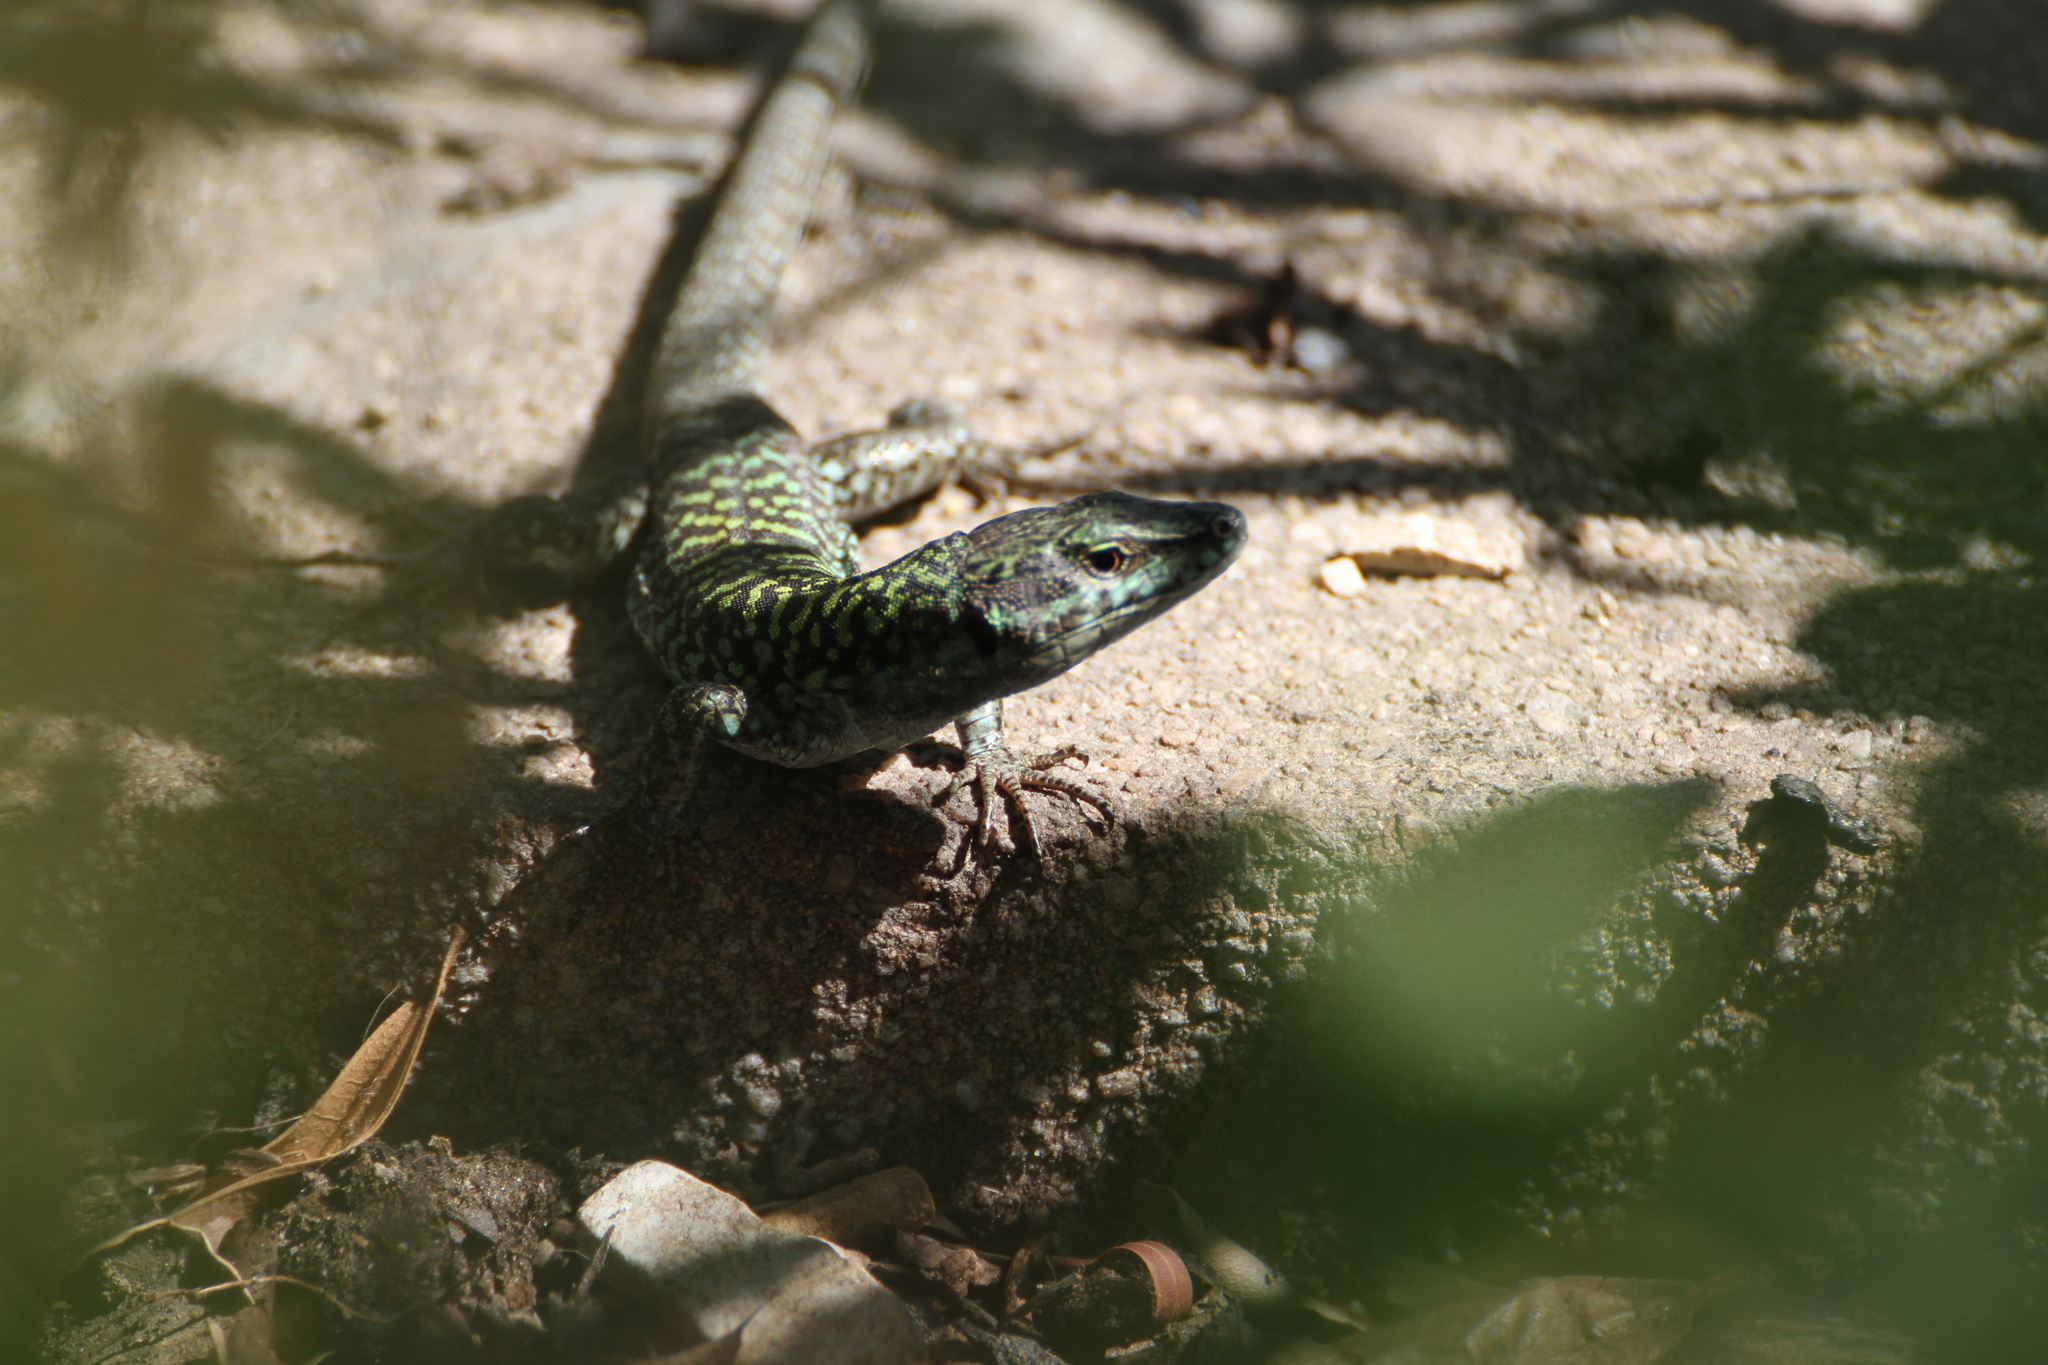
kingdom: Animalia
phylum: Chordata
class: Squamata
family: Lacertidae
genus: Podarcis
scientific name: Podarcis siculus
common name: Italian wall lizard
